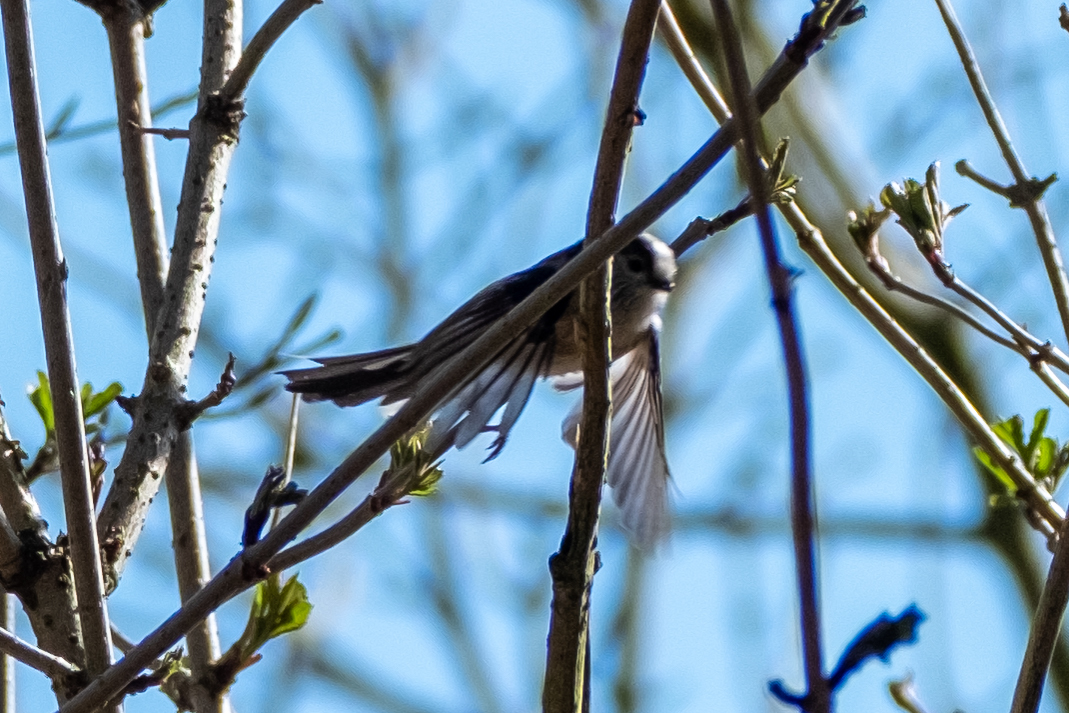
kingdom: Animalia
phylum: Chordata
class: Aves
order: Passeriformes
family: Aegithalidae
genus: Aegithalos
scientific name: Aegithalos caudatus
